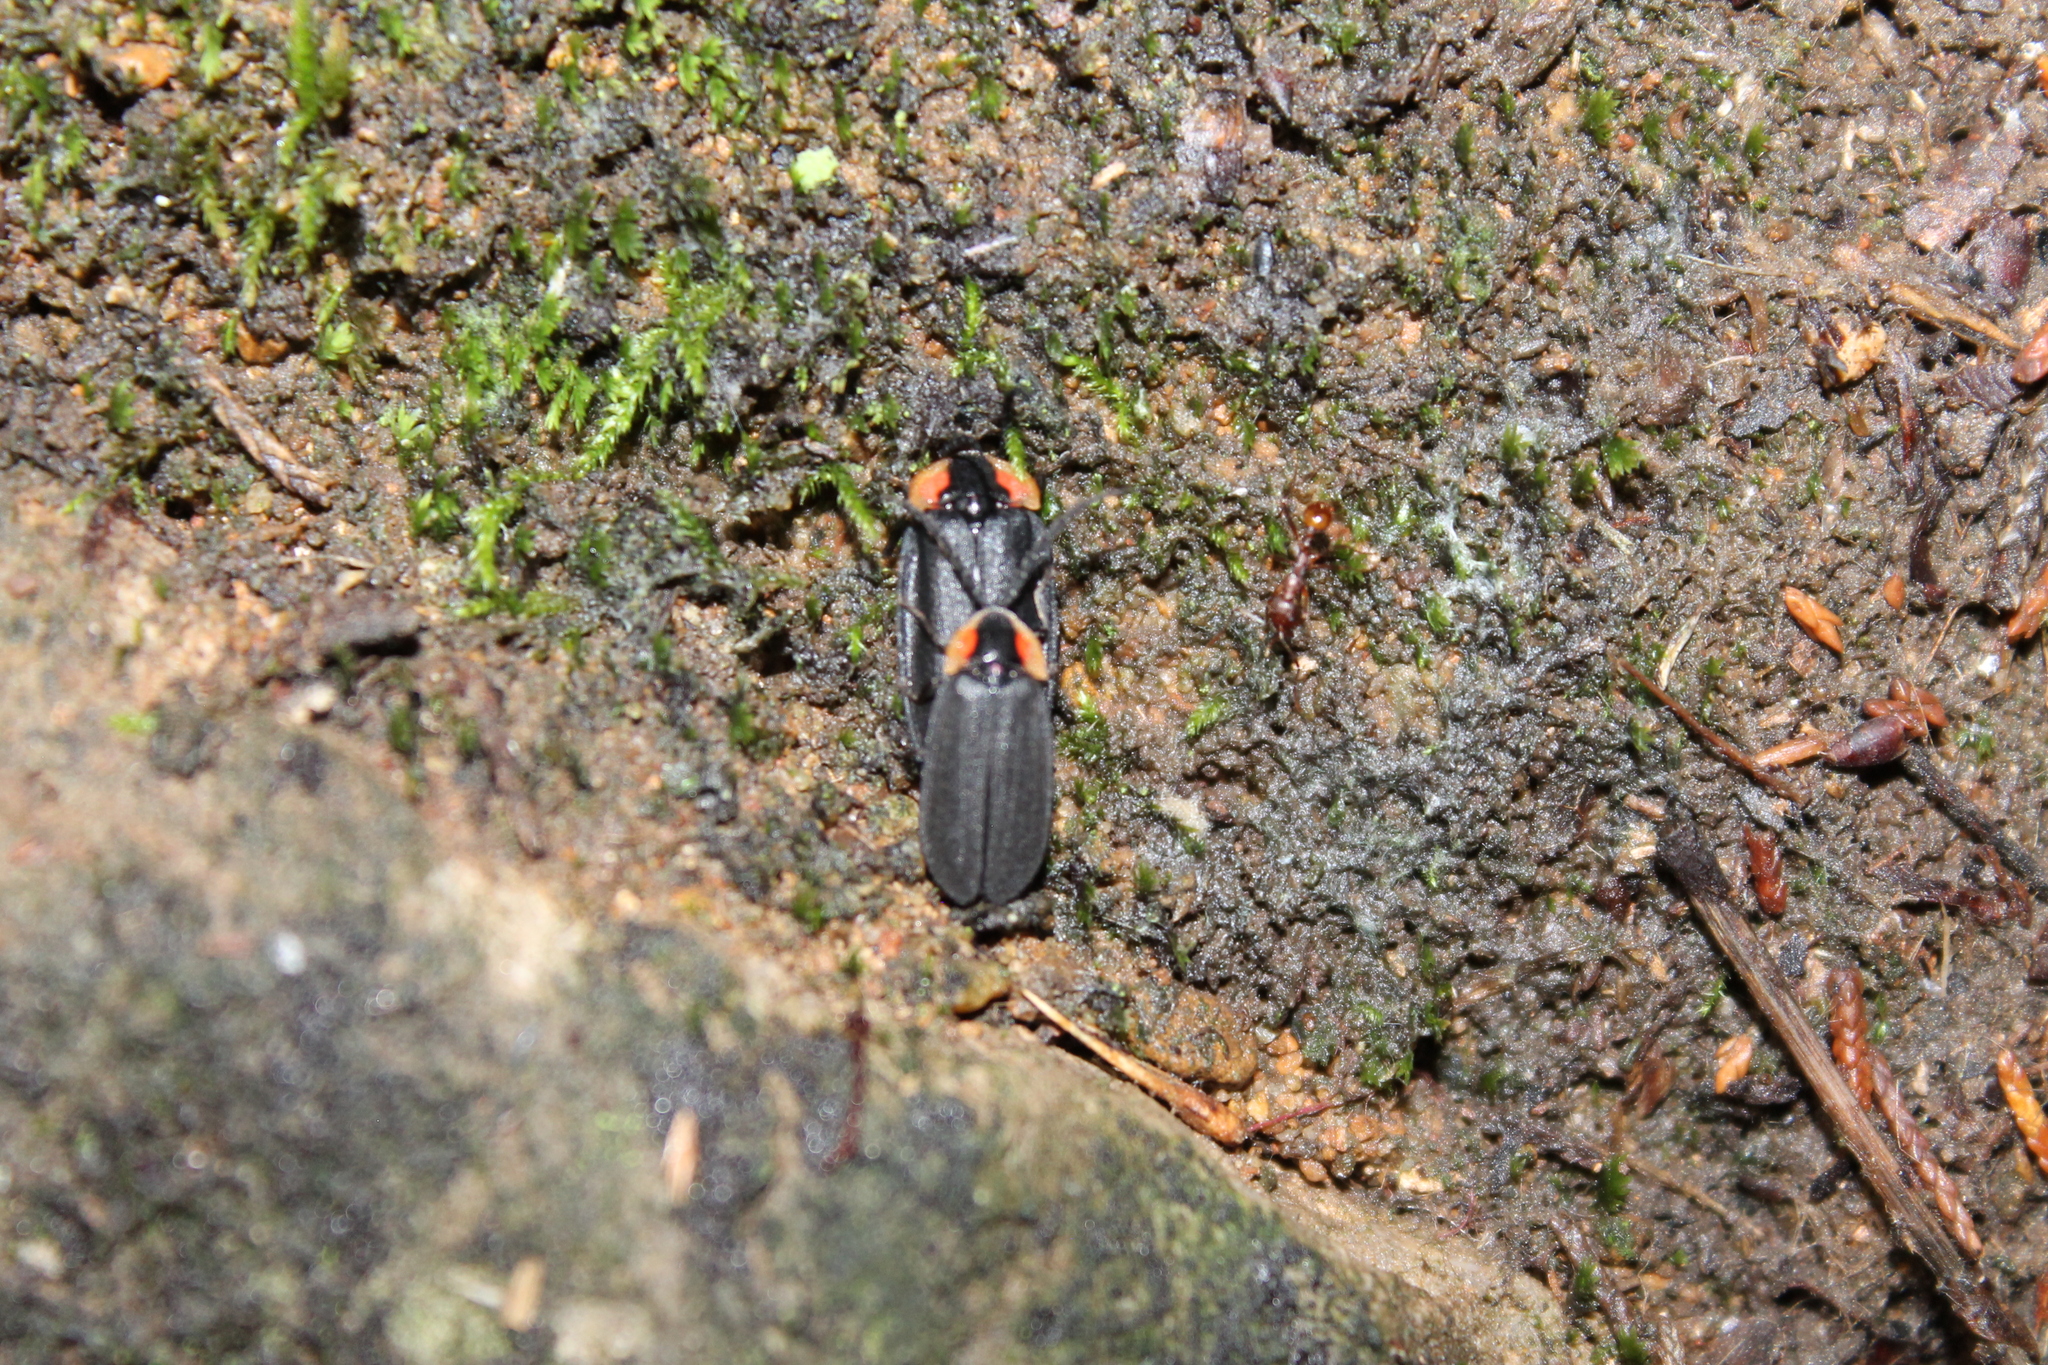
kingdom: Animalia
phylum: Arthropoda
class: Insecta
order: Coleoptera
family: Lampyridae
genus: Lucidota
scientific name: Lucidota atra
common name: Black firefly
